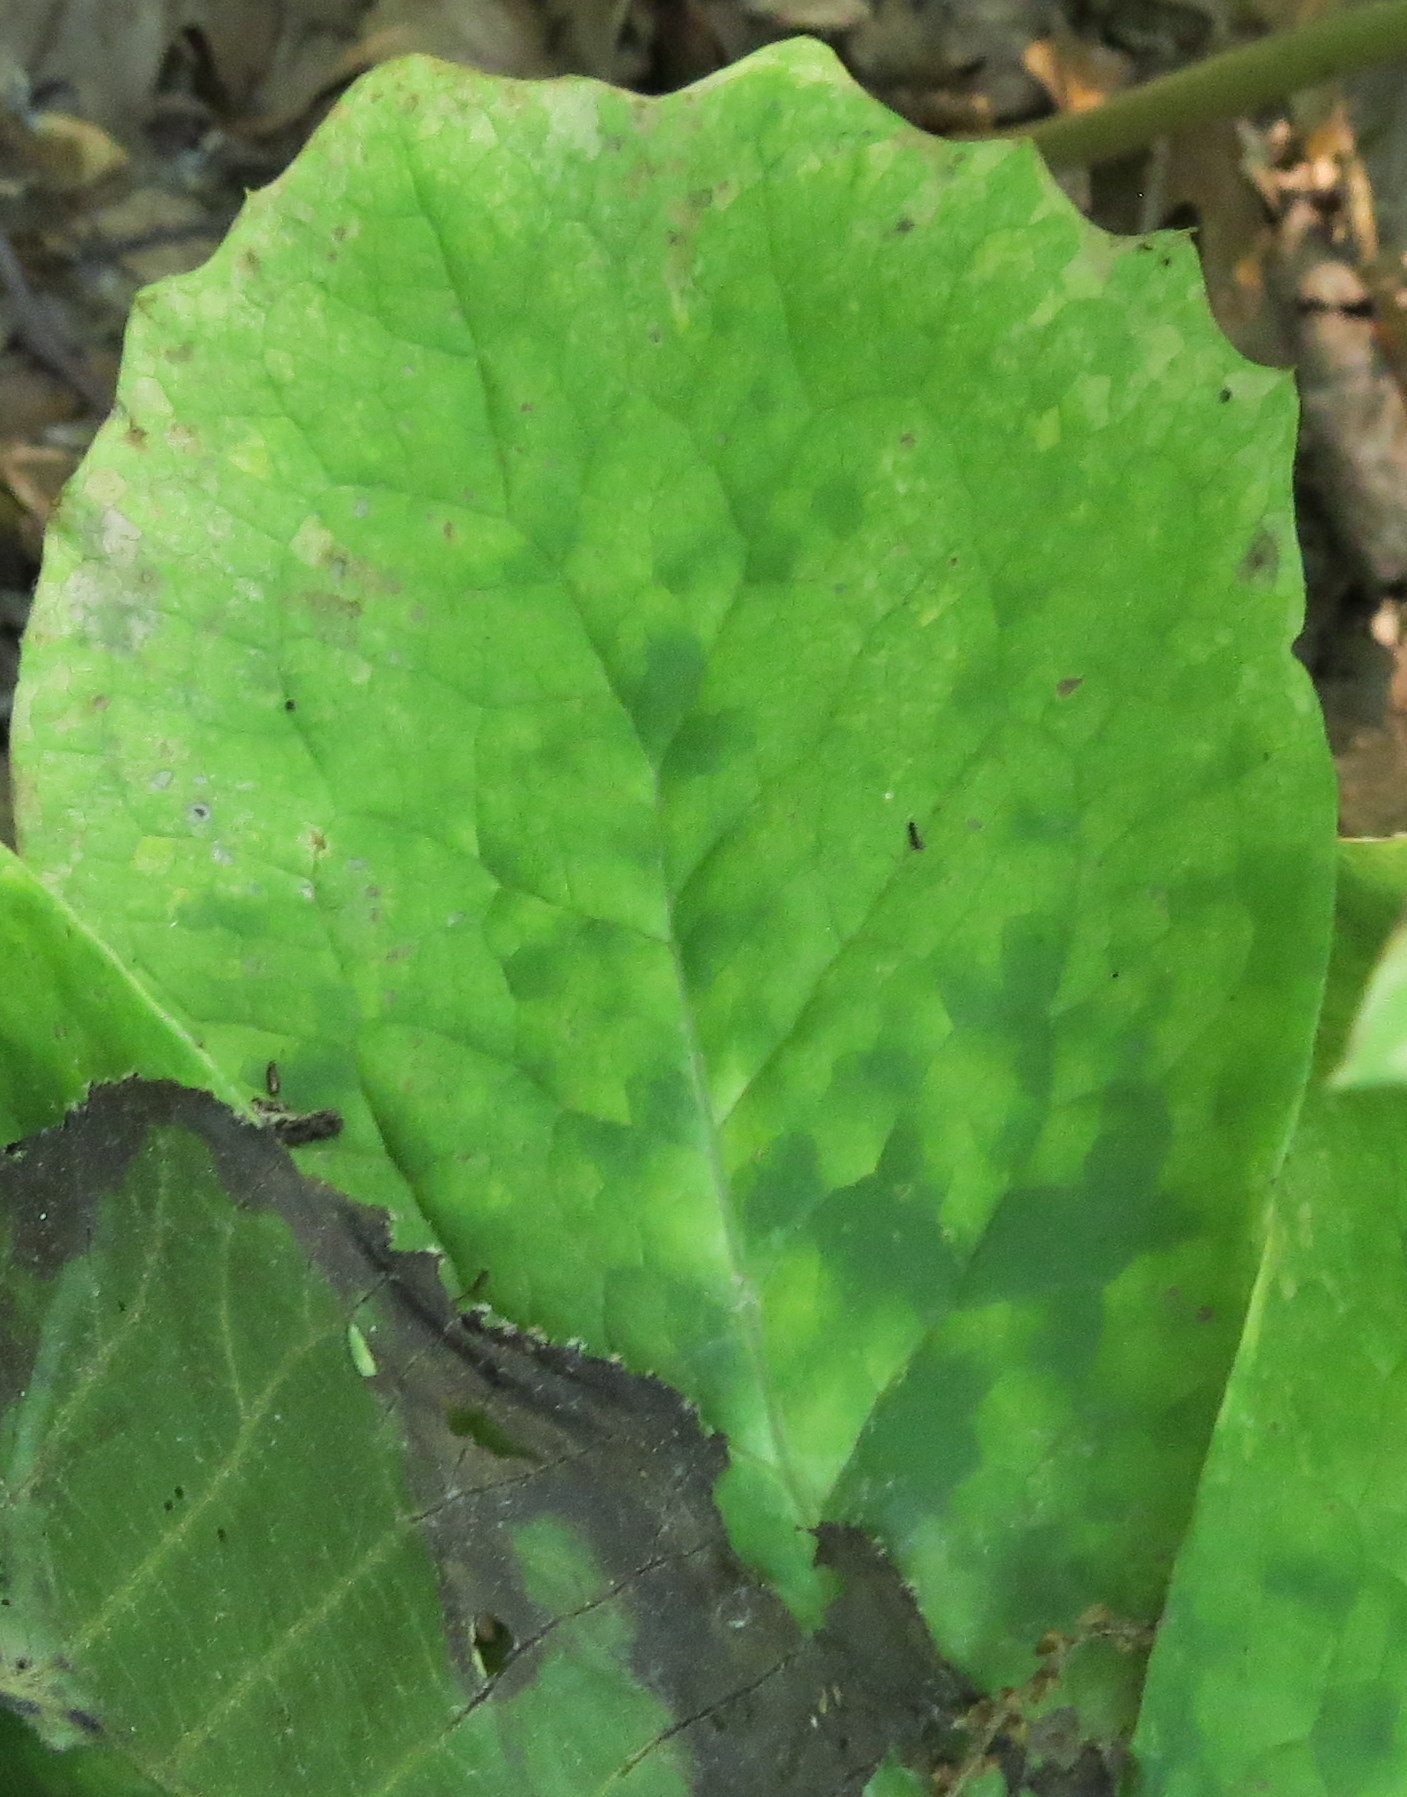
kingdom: Fungi
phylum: Basidiomycota
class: Pucciniomycetes
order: Pucciniales
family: Pucciniaceae
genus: Puccinia
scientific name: Puccinia podophylli
